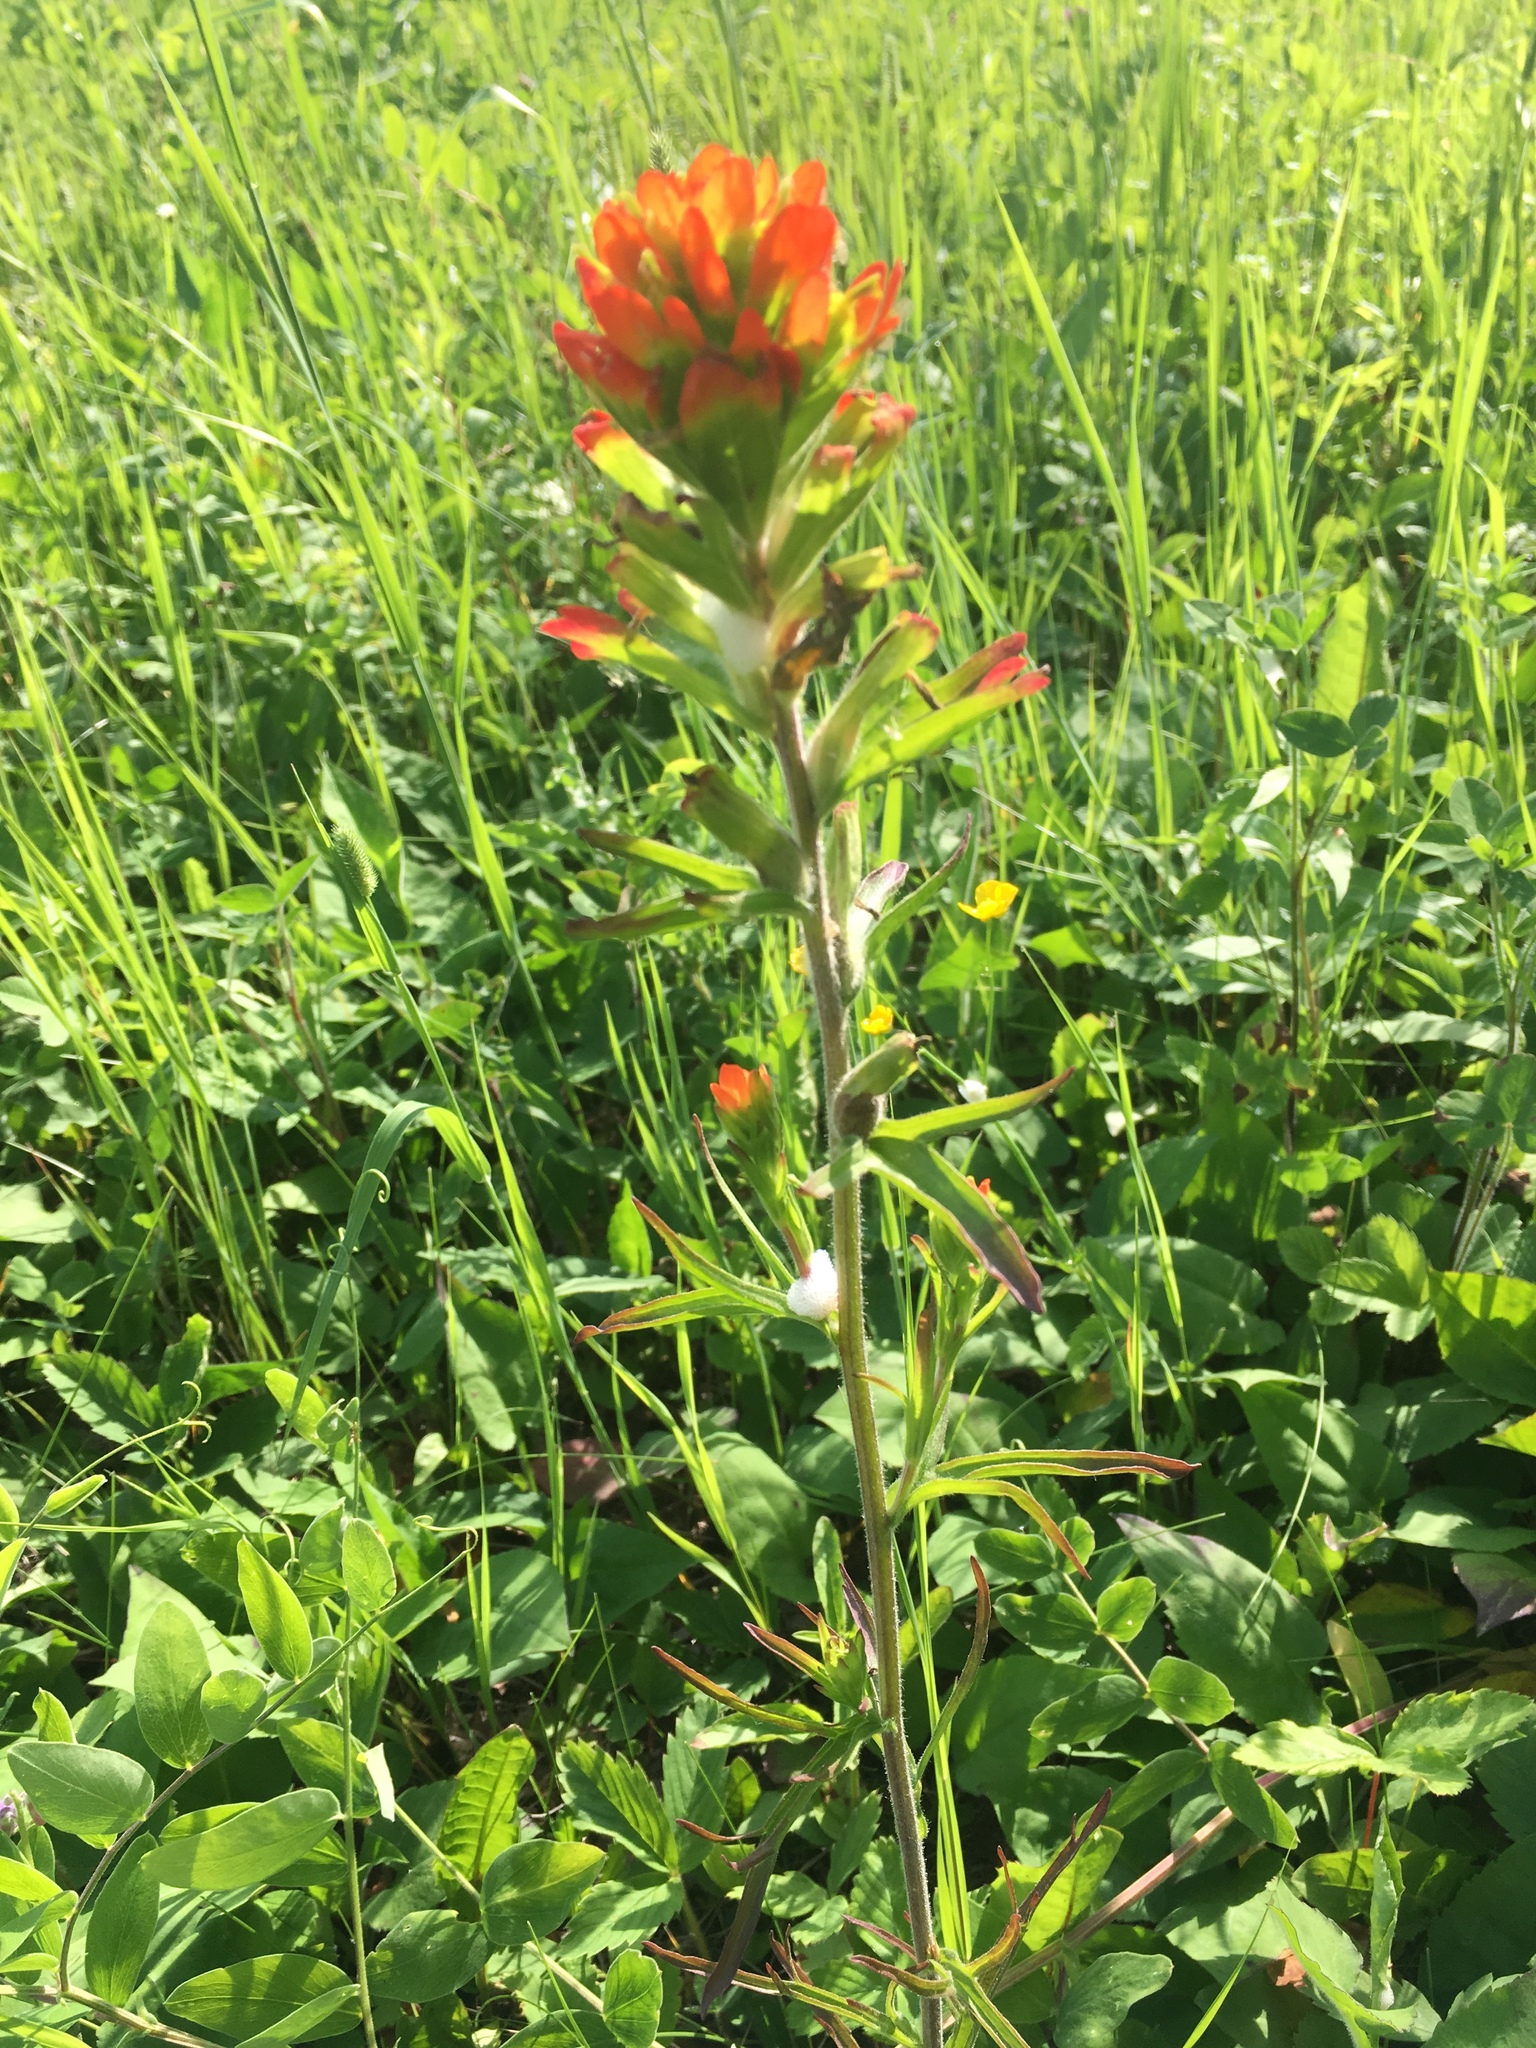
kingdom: Plantae
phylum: Tracheophyta
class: Magnoliopsida
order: Lamiales
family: Orobanchaceae
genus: Castilleja
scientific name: Castilleja coccinea
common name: Scarlet paintbrush
